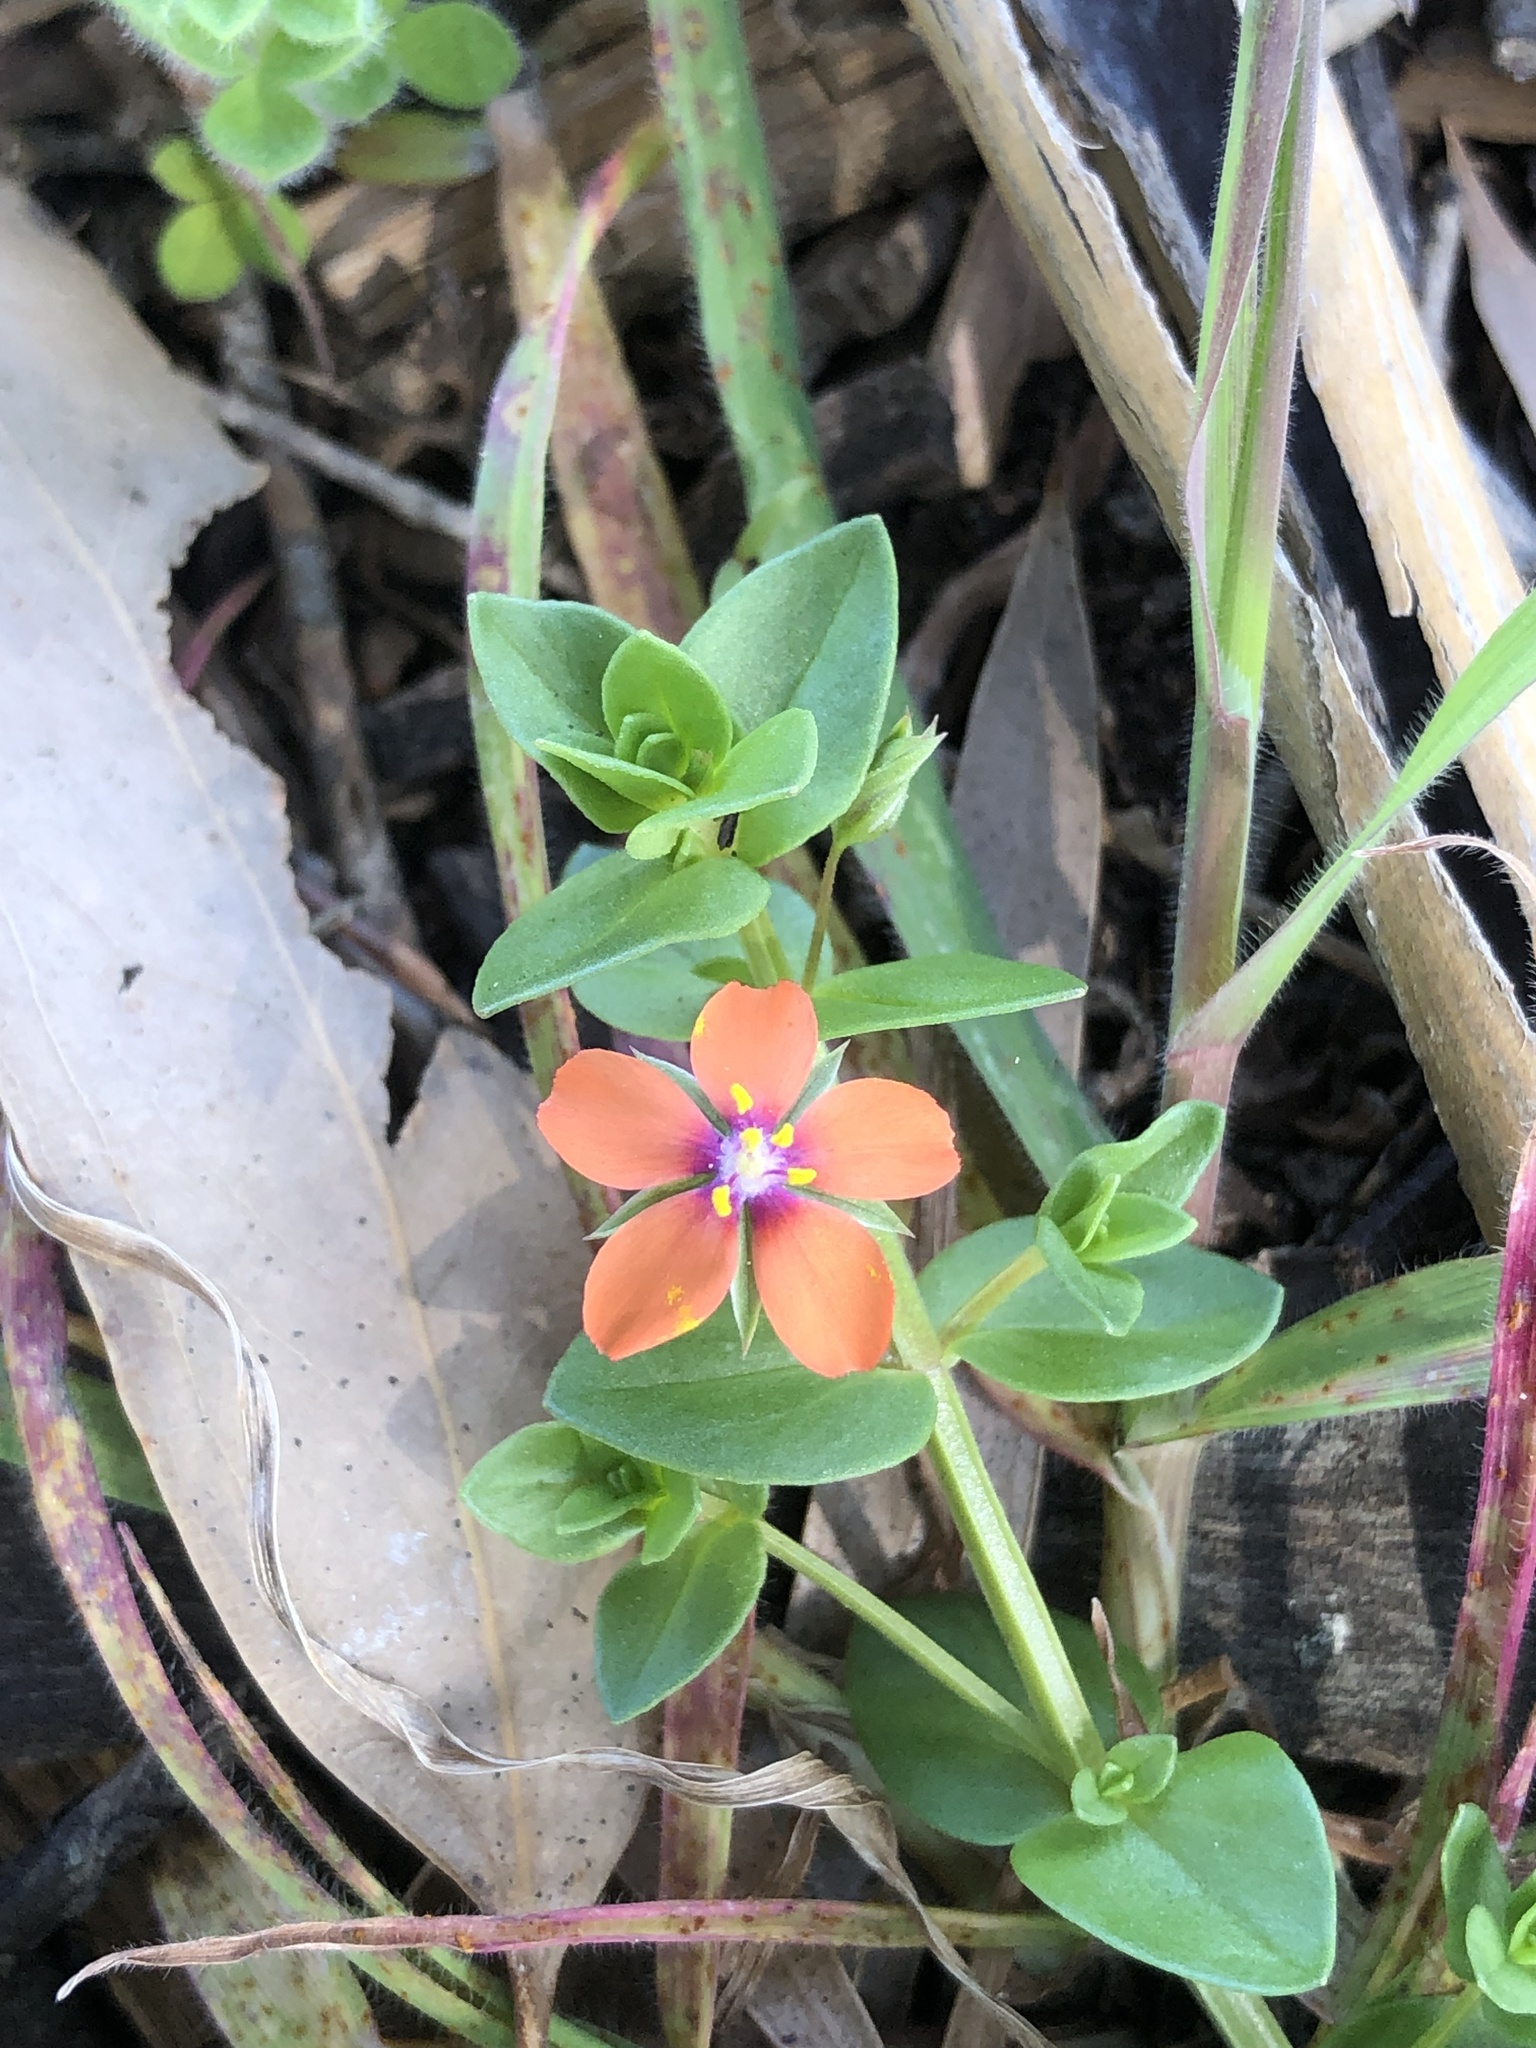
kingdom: Plantae
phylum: Tracheophyta
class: Magnoliopsida
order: Ericales
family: Primulaceae
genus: Lysimachia
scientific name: Lysimachia arvensis
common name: Scarlet pimpernel
